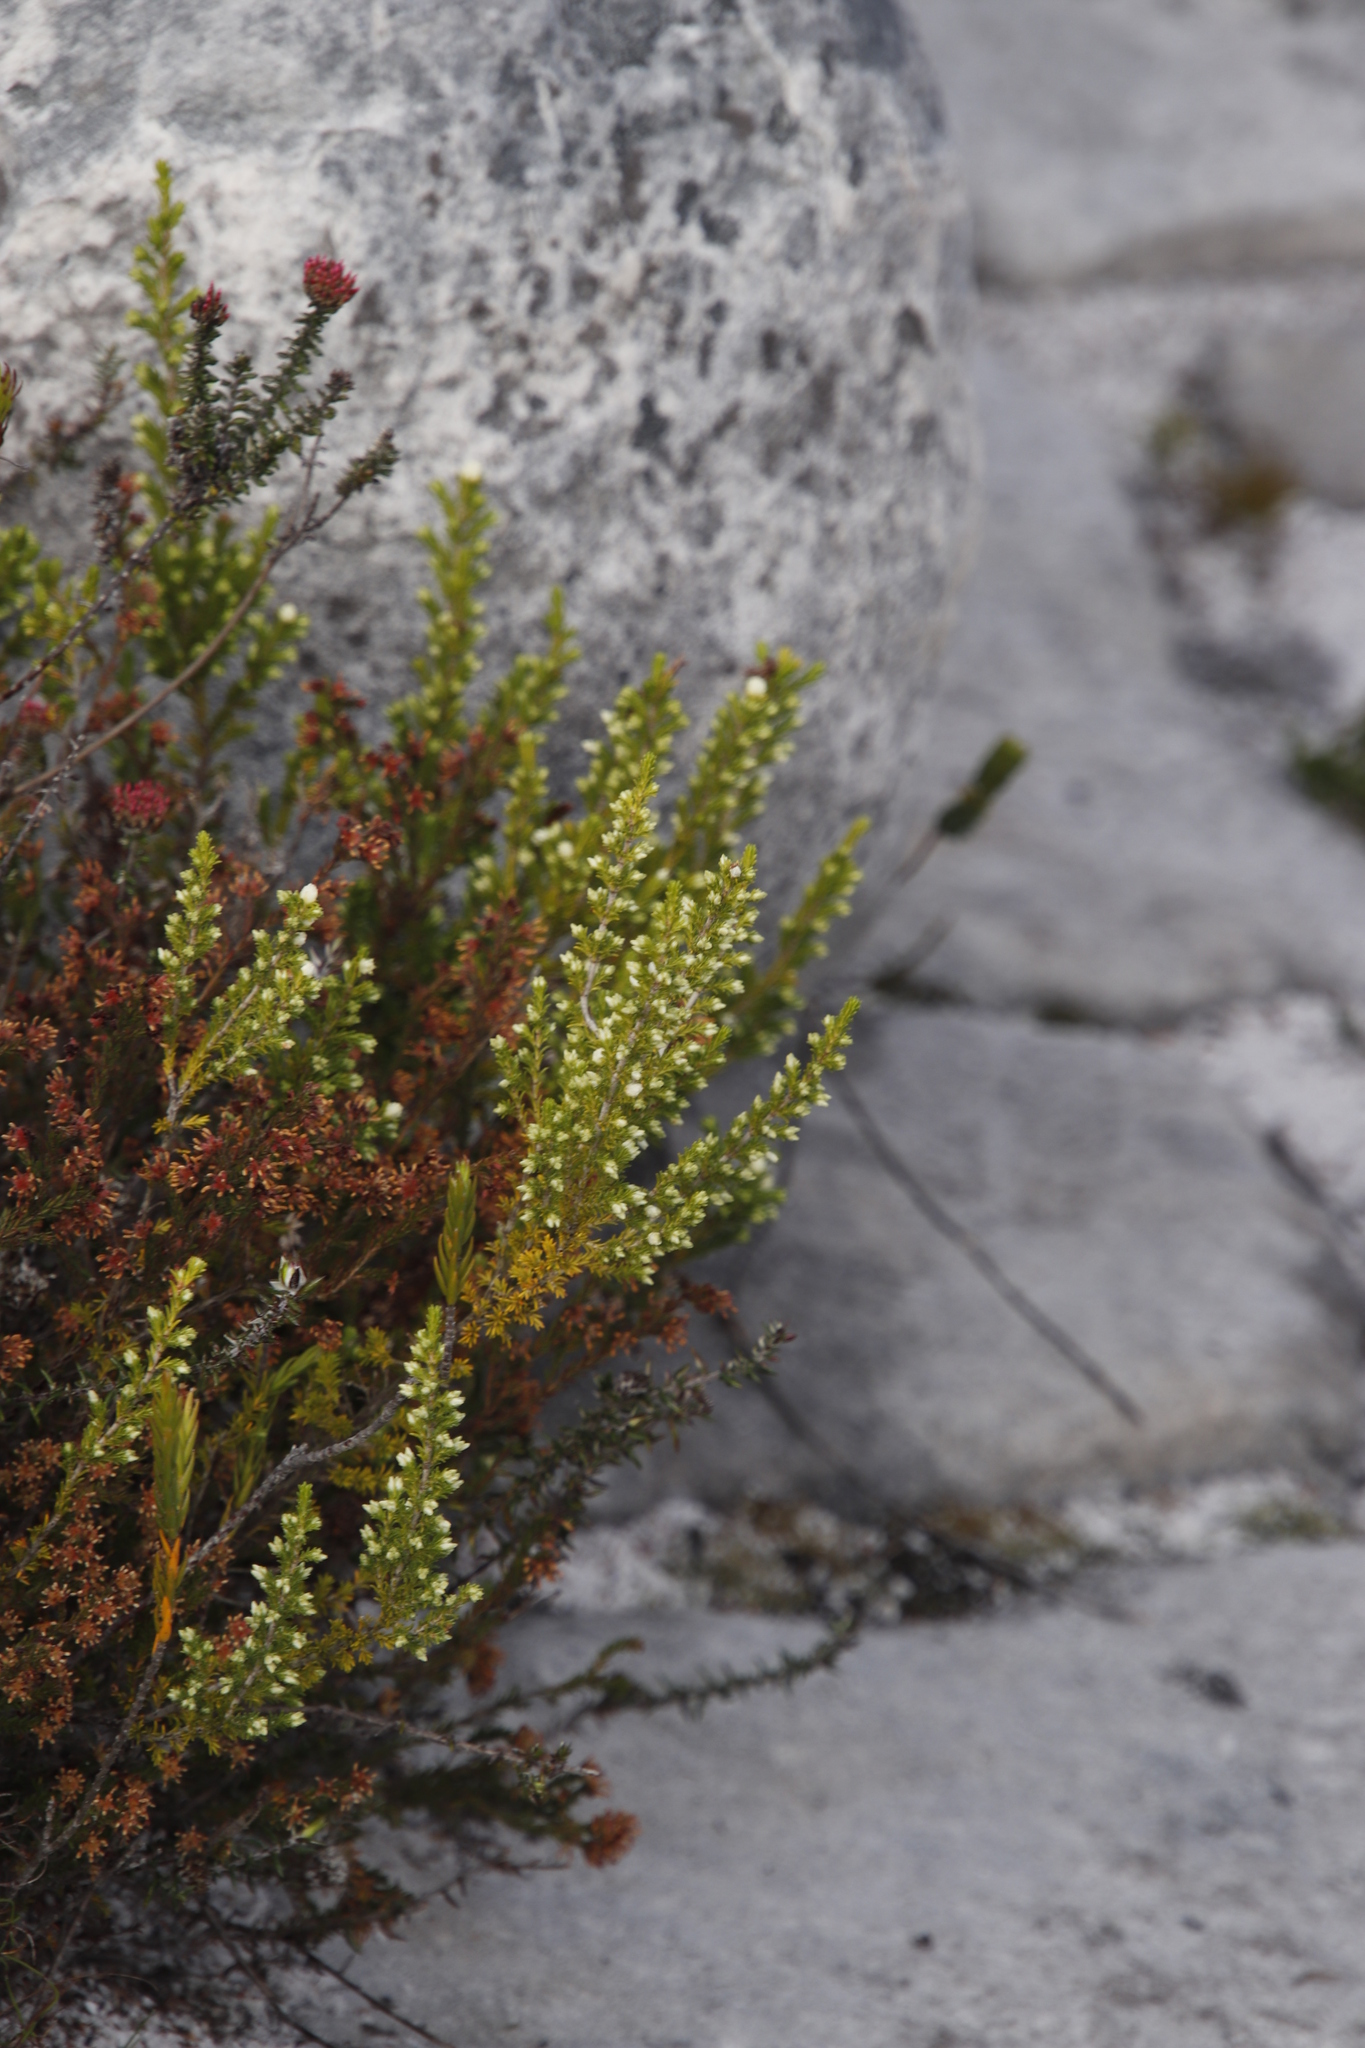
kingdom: Plantae
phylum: Tracheophyta
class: Magnoliopsida
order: Ericales
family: Ericaceae
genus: Erica
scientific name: Erica imbricata
